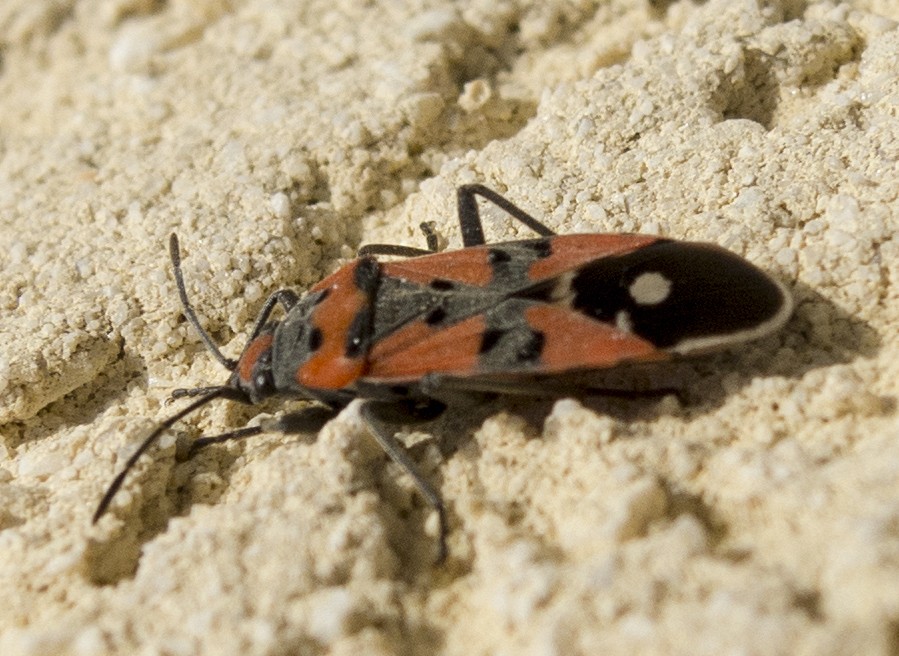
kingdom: Animalia
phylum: Arthropoda
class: Insecta
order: Hemiptera
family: Lygaeidae
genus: Lygaeus
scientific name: Lygaeus equestris
